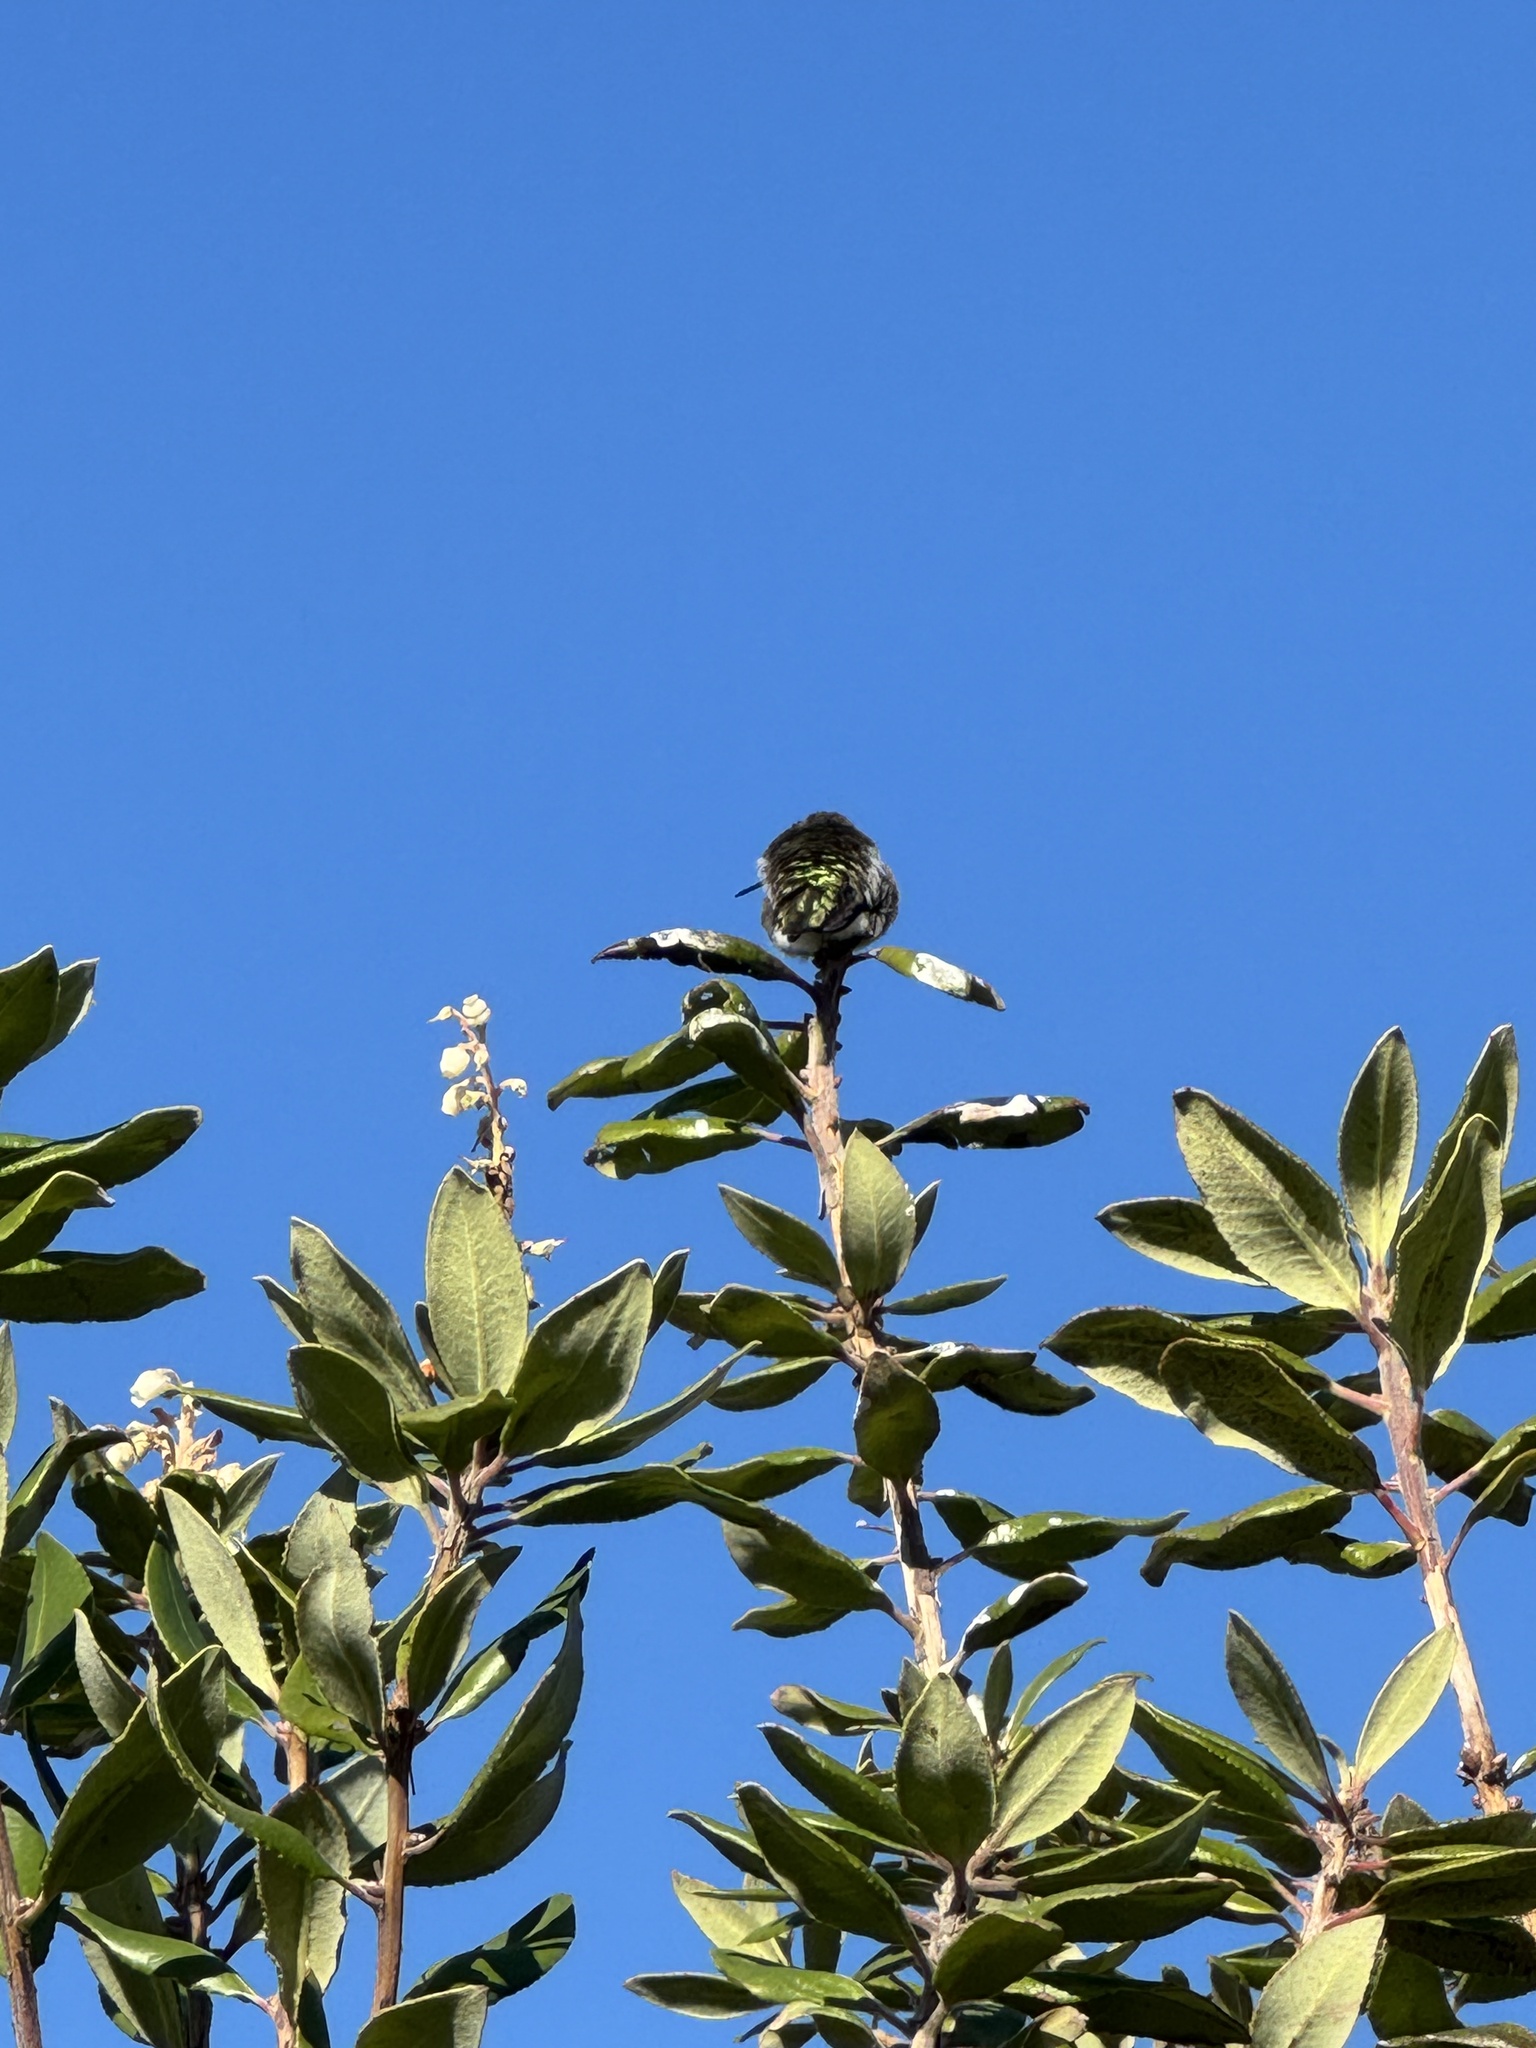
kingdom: Animalia
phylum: Chordata
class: Aves
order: Apodiformes
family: Trochilidae
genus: Calypte
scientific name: Calypte anna
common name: Anna's hummingbird
